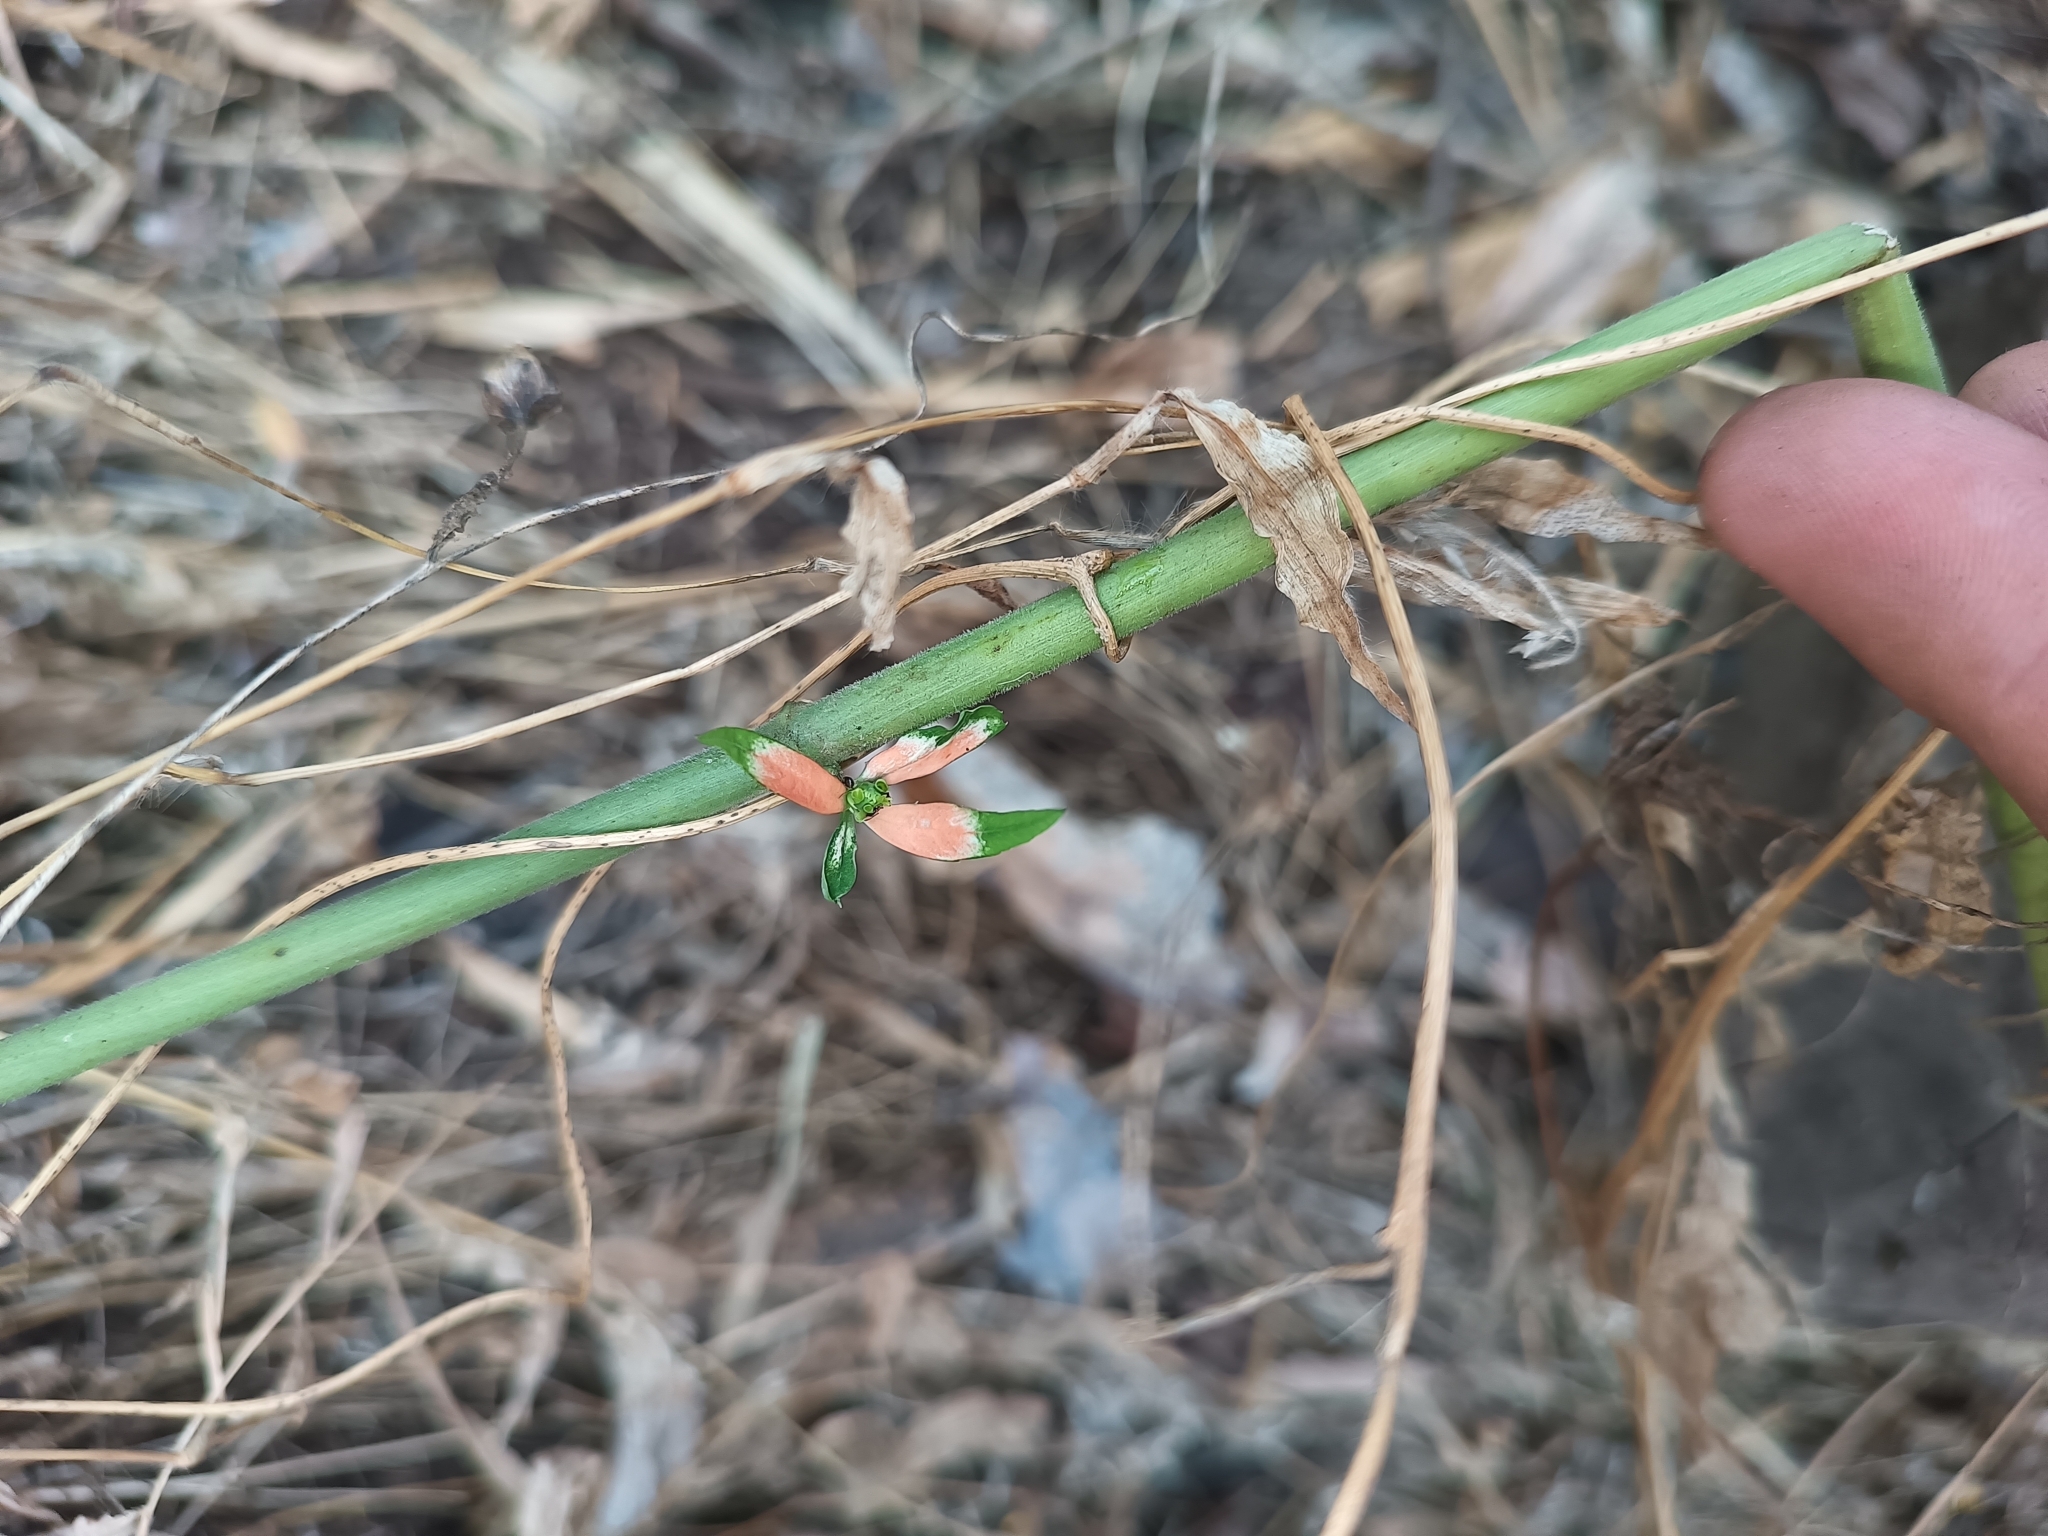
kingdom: Plantae
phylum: Tracheophyta
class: Magnoliopsida
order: Malpighiales
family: Euphorbiaceae
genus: Euphorbia
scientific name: Euphorbia heterophylla
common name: Mexican fireplant
